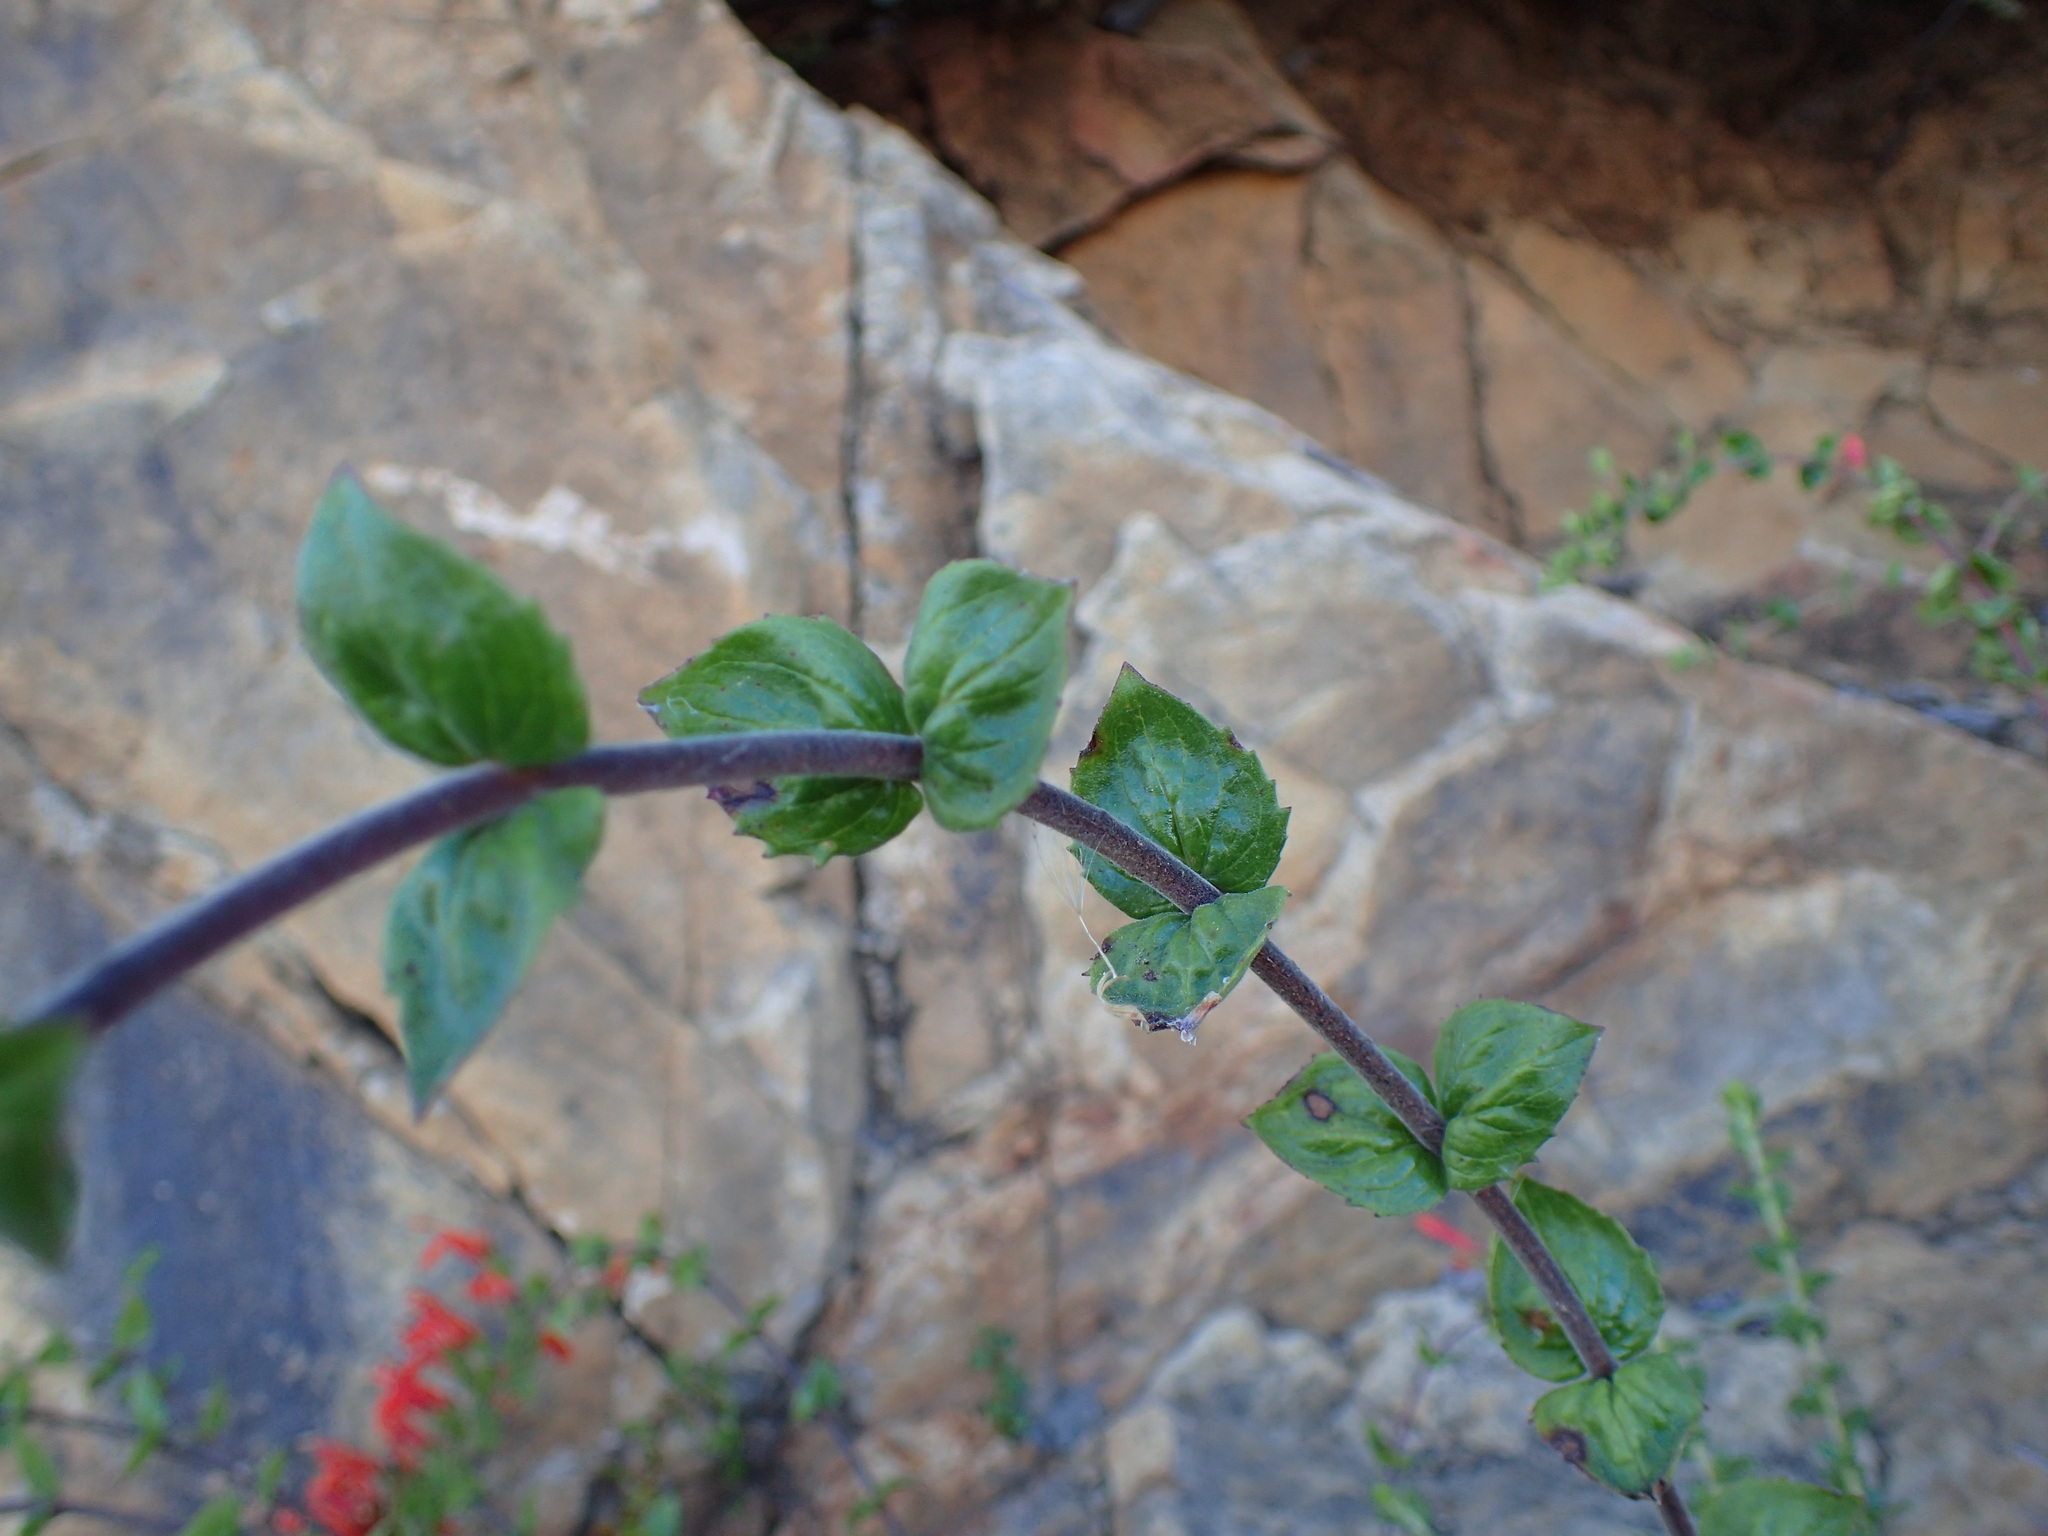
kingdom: Plantae
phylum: Tracheophyta
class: Magnoliopsida
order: Lamiales
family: Plantaginaceae
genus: Keckiella
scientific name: Keckiella cordifolia
